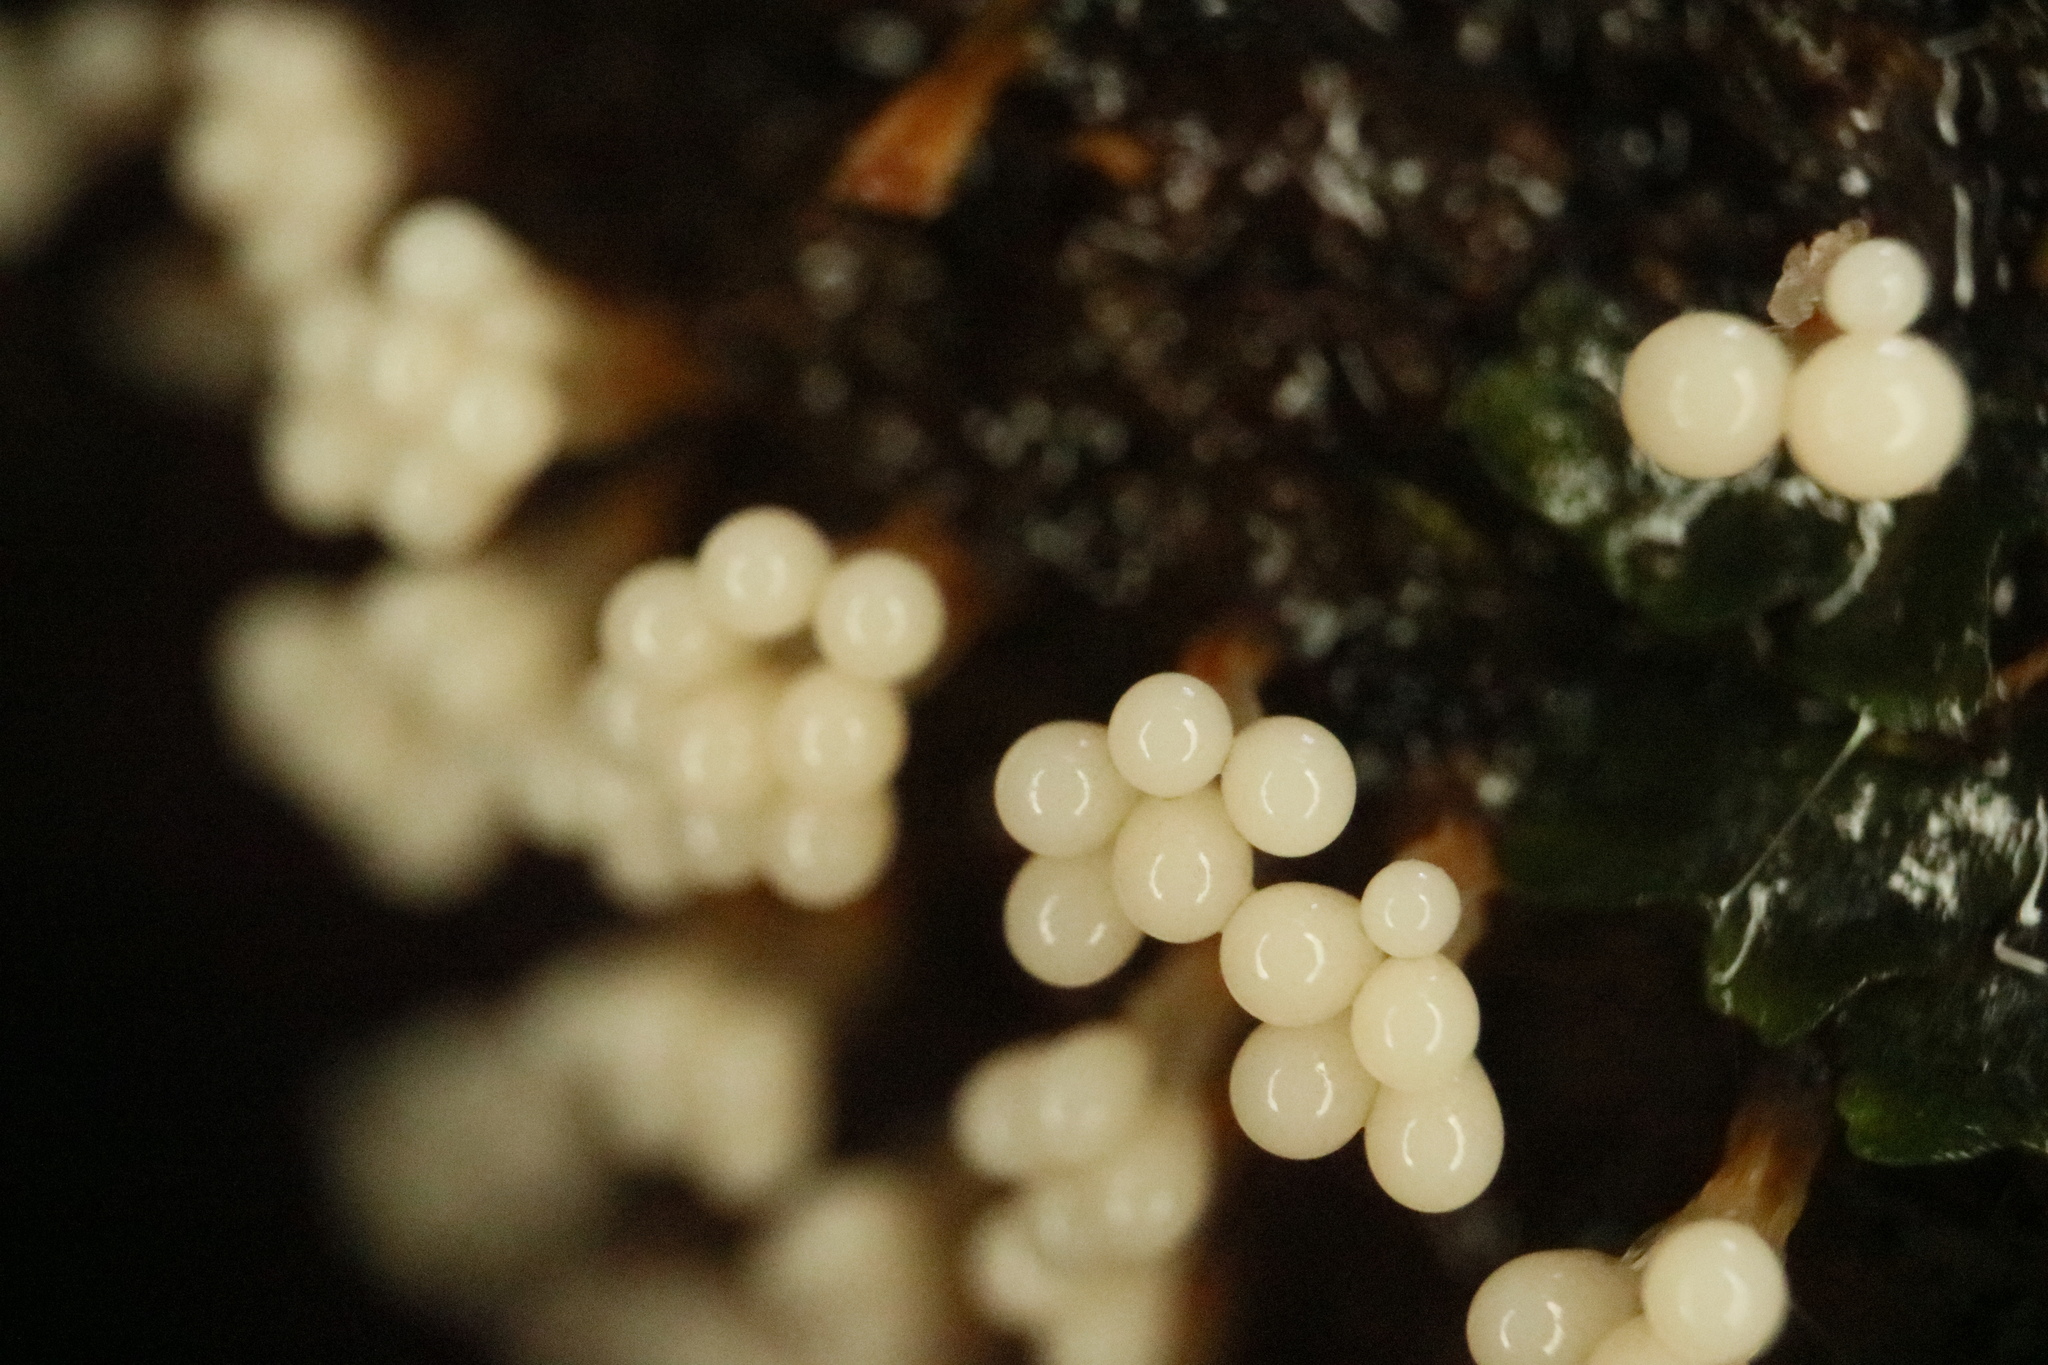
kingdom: Protozoa
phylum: Mycetozoa
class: Myxomycetes
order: Trichiales
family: Trichiaceae
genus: Oligonema
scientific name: Oligonema verrucosum
